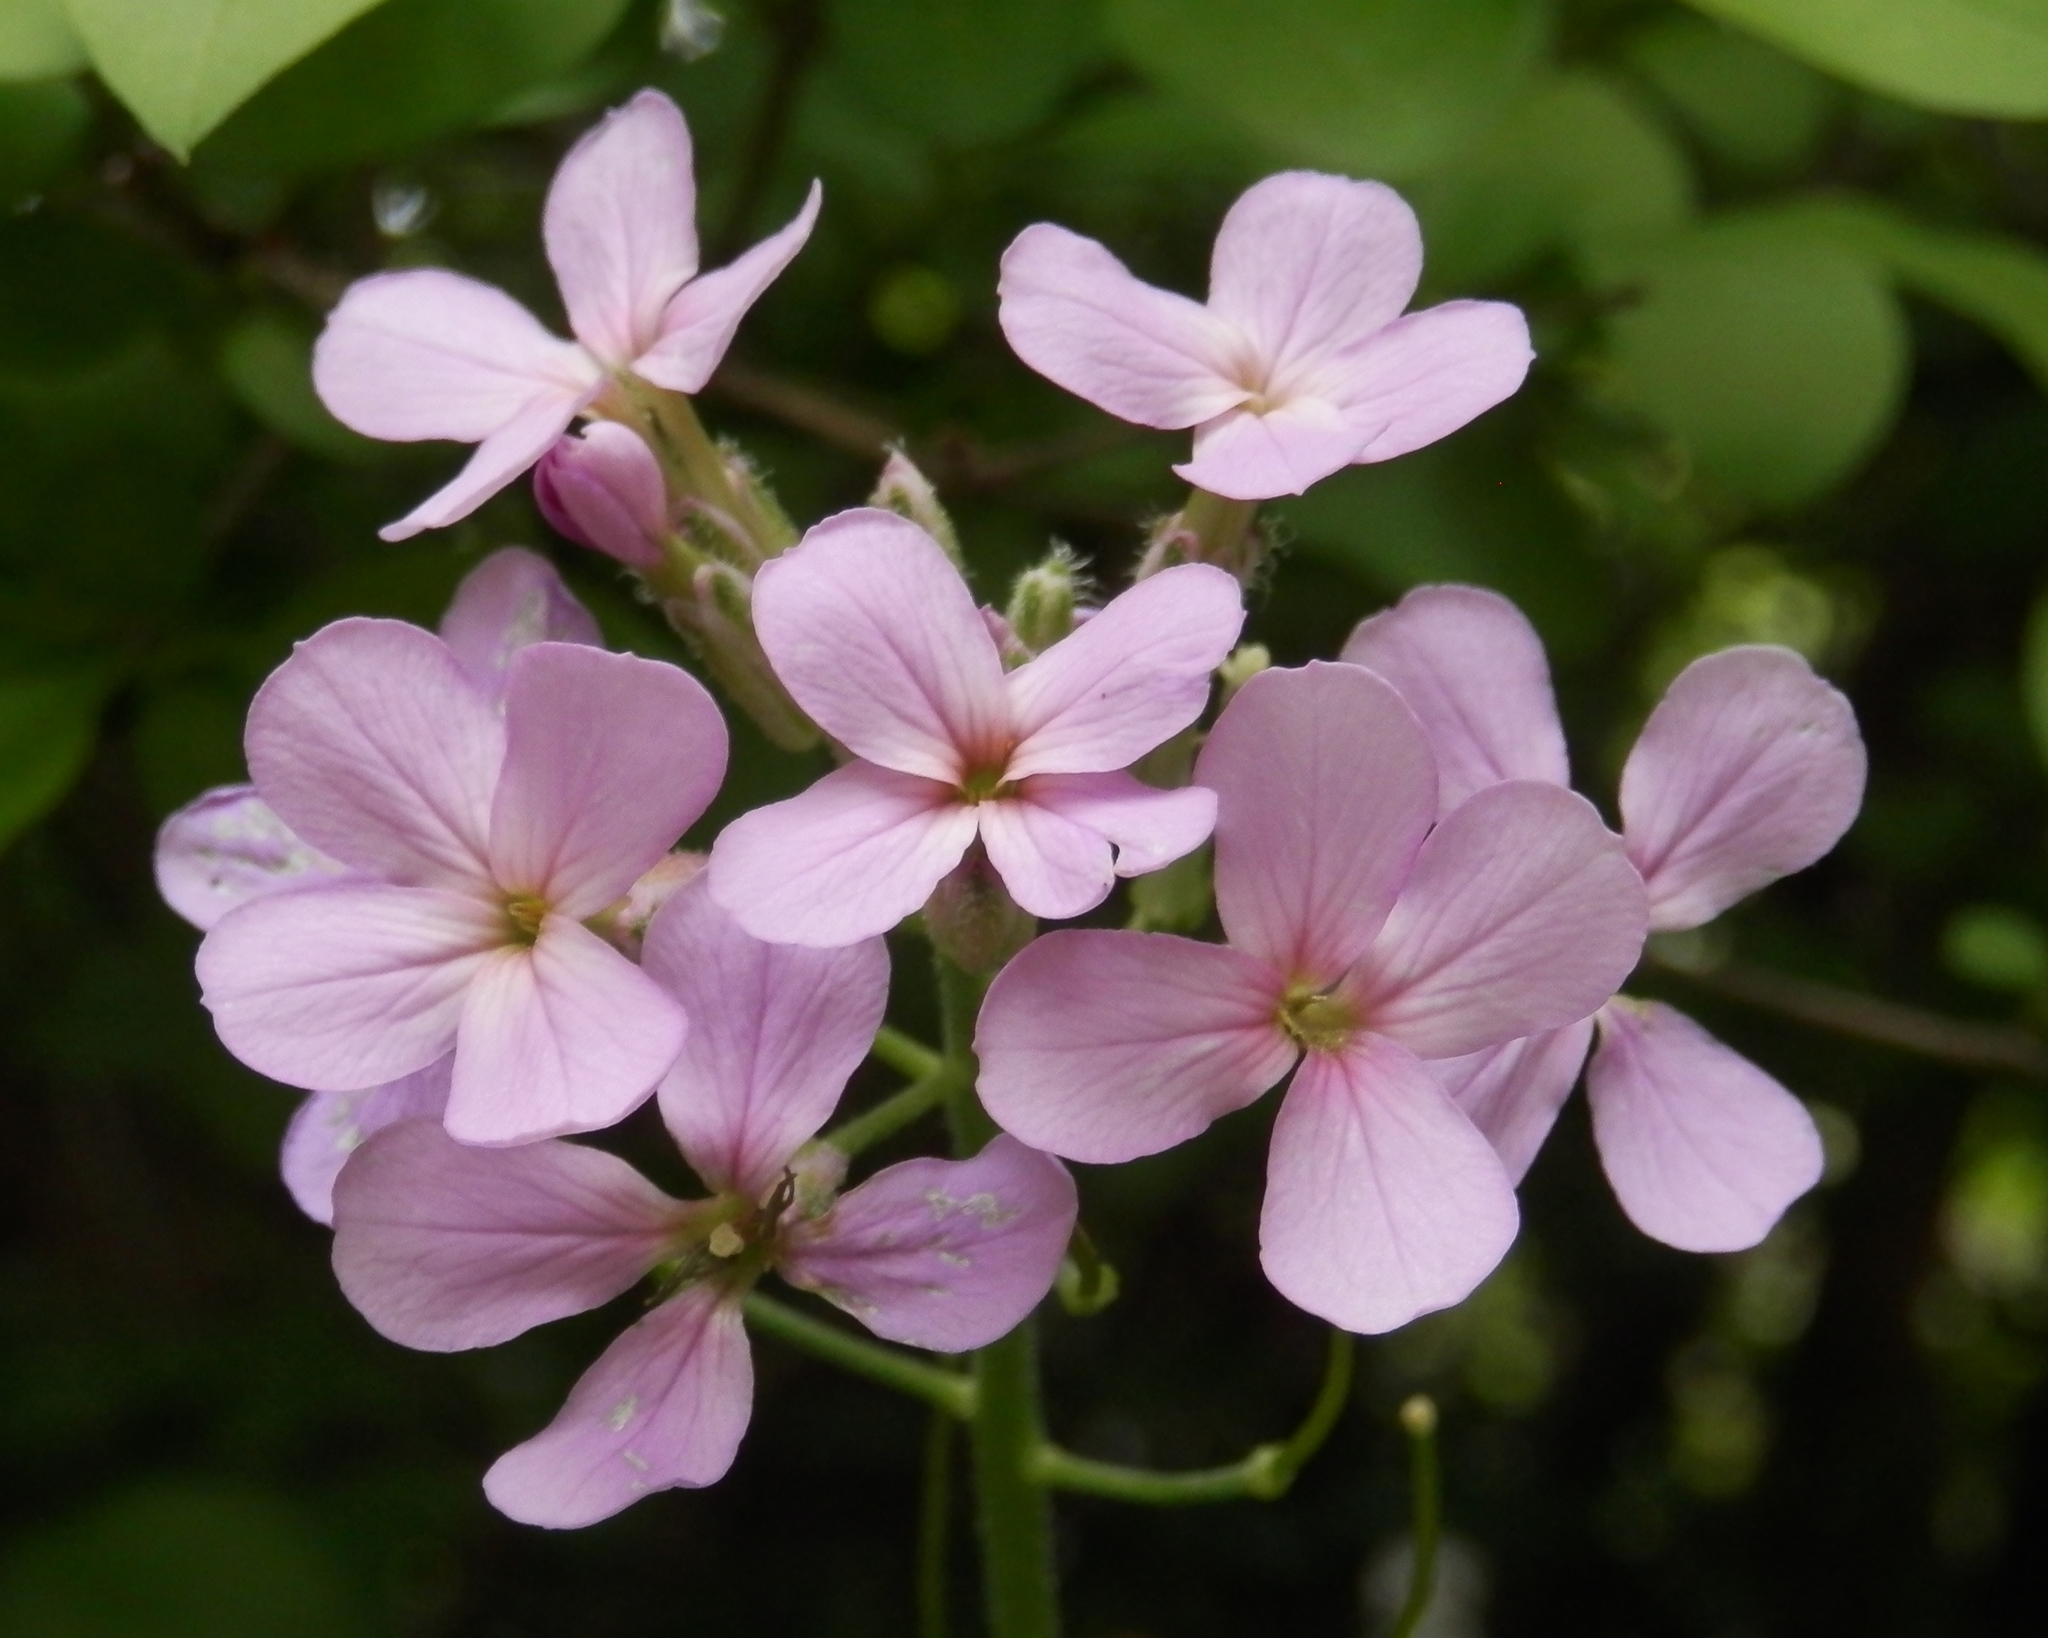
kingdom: Plantae
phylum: Tracheophyta
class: Magnoliopsida
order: Brassicales
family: Brassicaceae
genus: Hesperis
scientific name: Hesperis matronalis
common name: Dame's-violet
